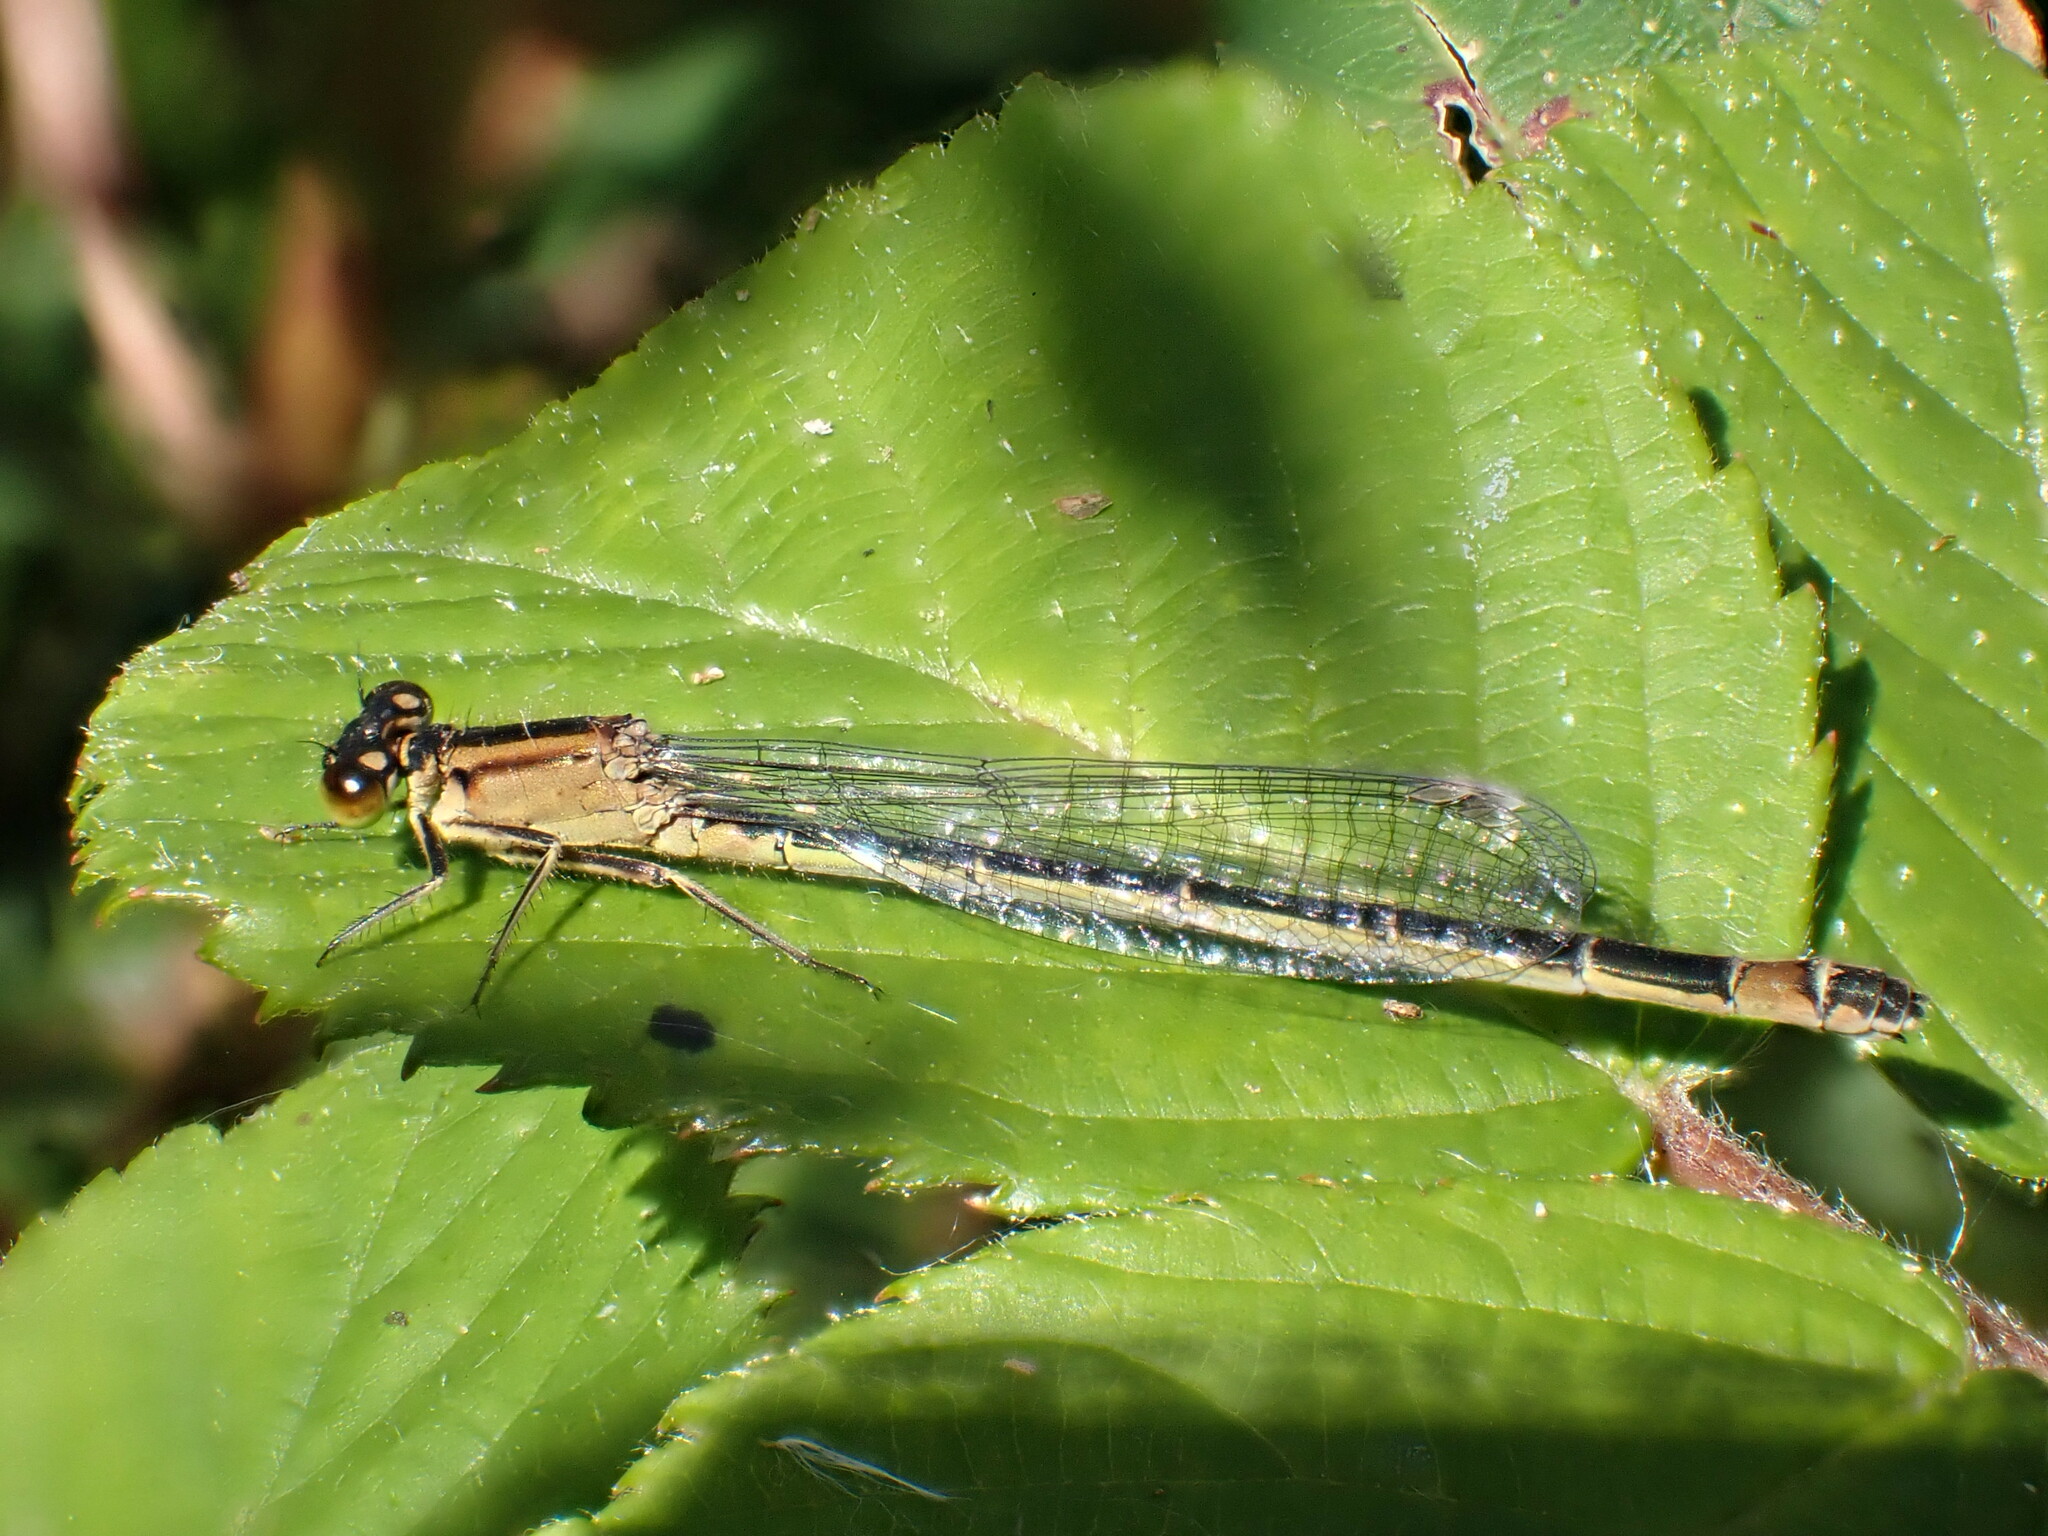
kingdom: Animalia
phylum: Arthropoda
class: Insecta
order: Odonata
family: Coenagrionidae
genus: Ischnura
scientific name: Ischnura elegans
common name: Blue-tailed damselfly
